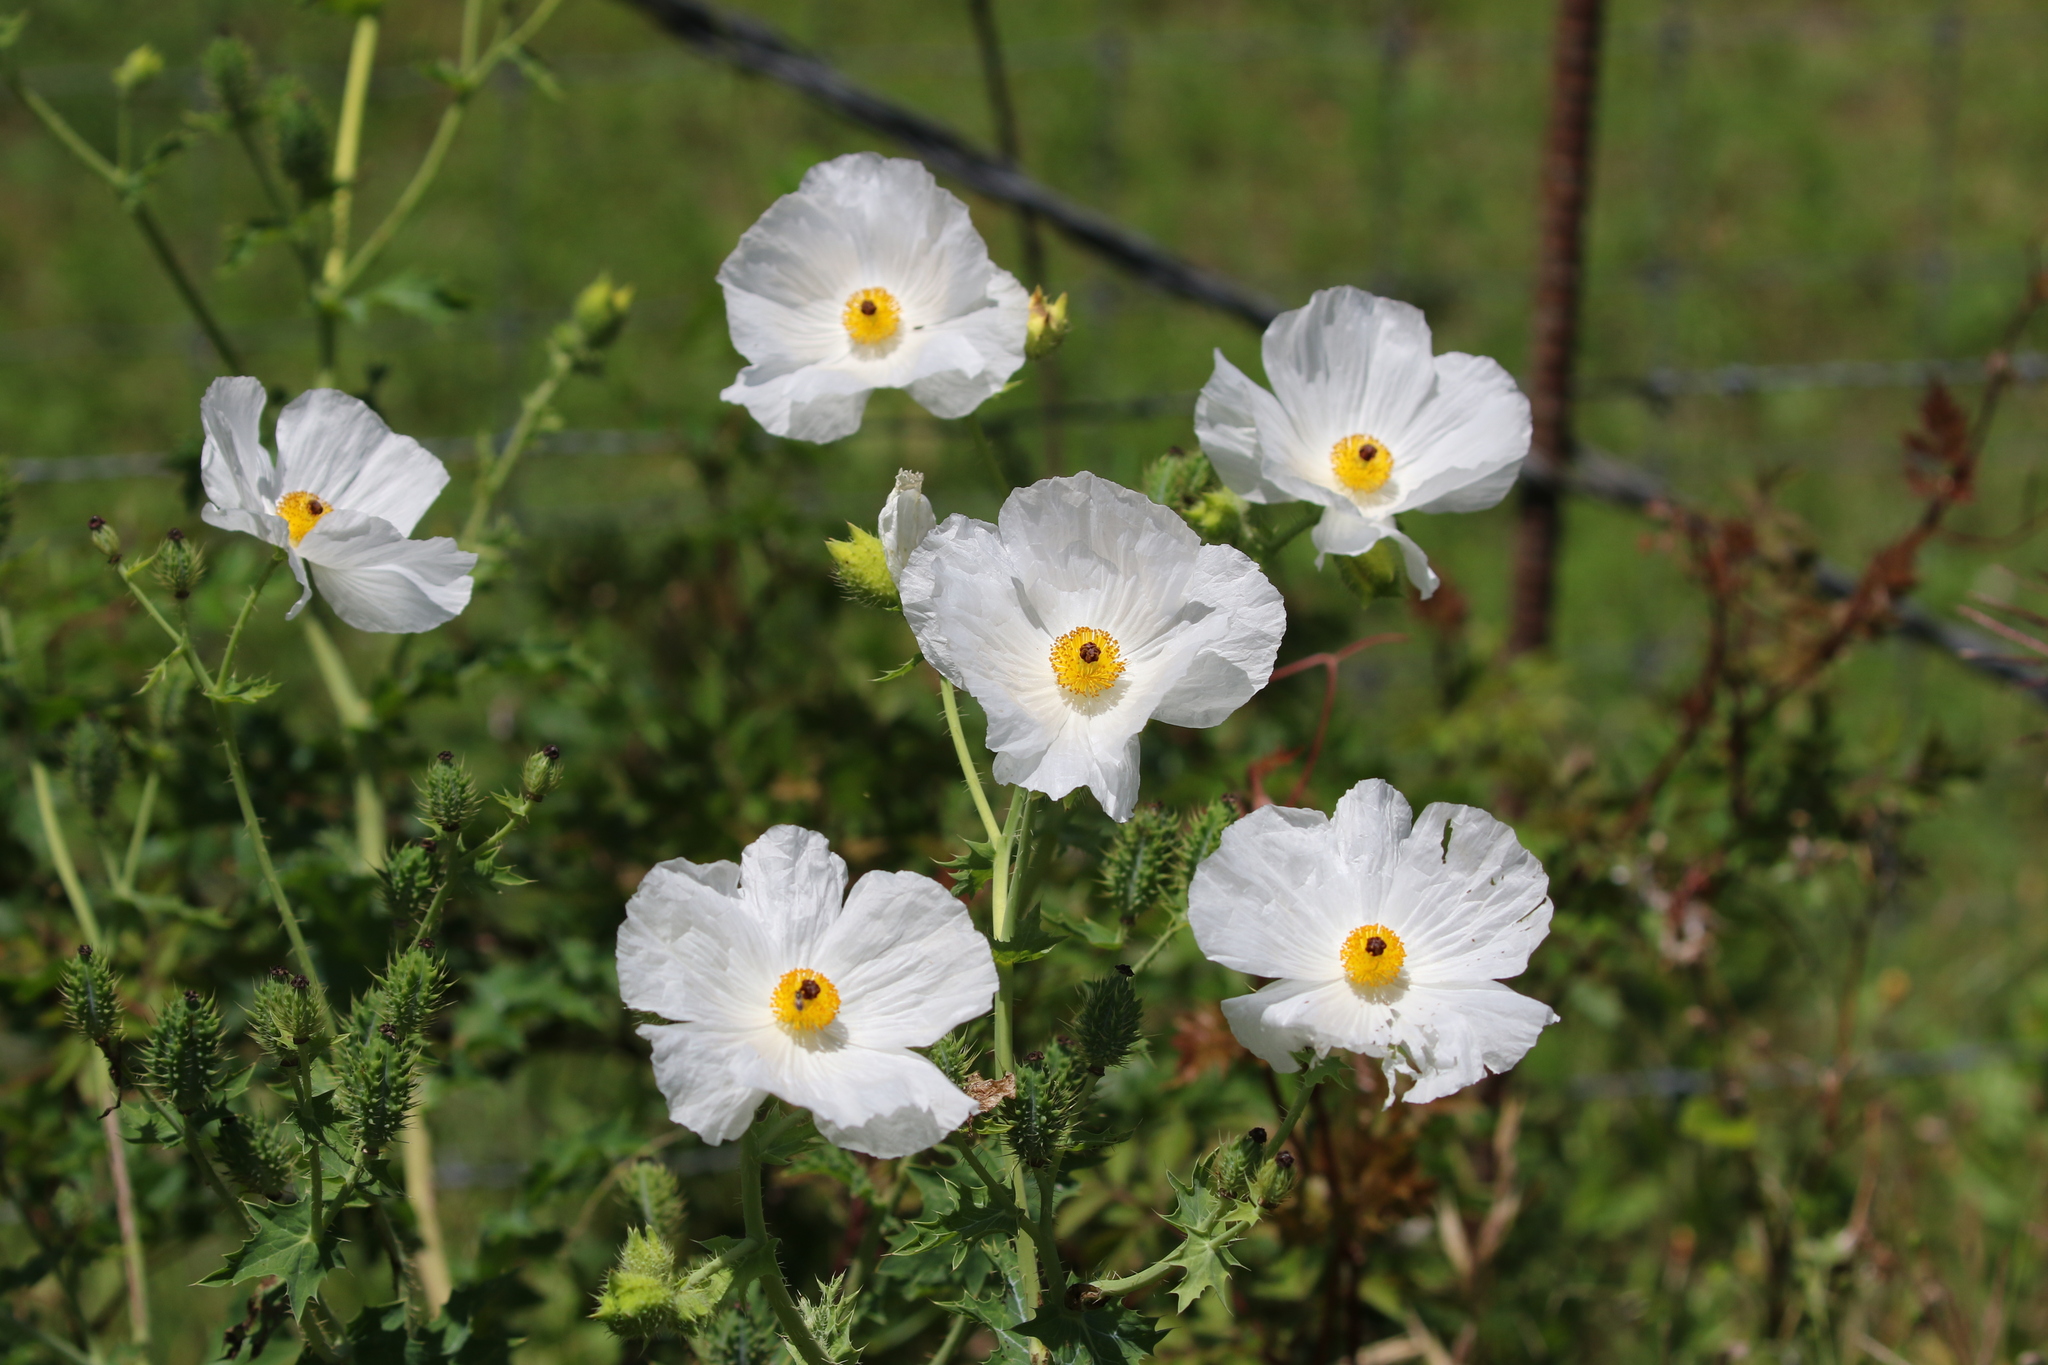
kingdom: Plantae
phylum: Tracheophyta
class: Magnoliopsida
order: Ranunculales
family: Papaveraceae
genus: Argemone
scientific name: Argemone albiflora
